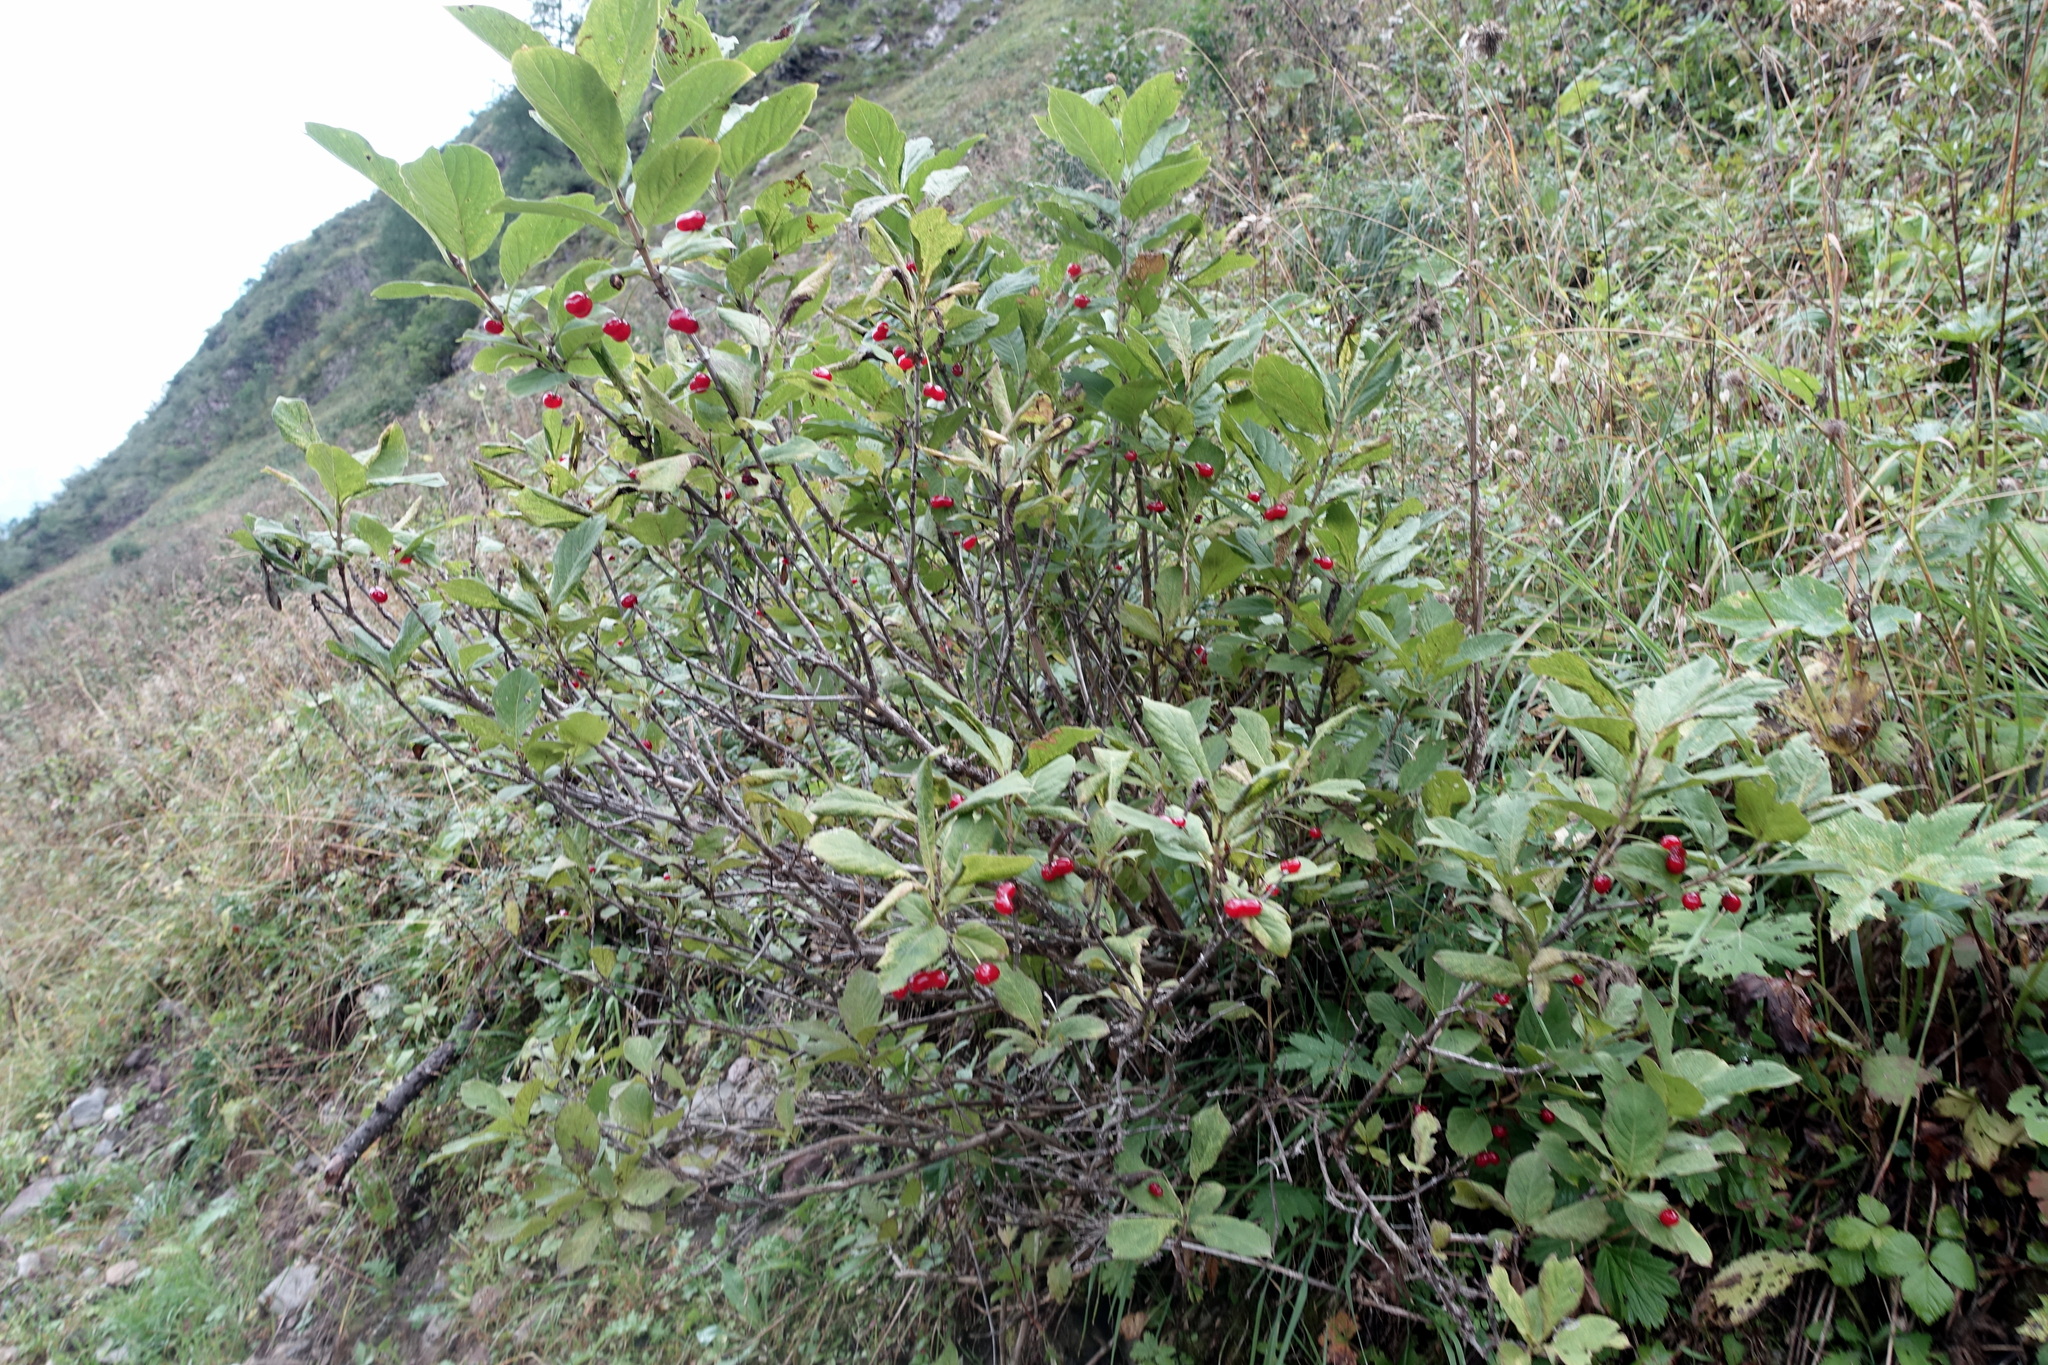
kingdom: Plantae
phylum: Tracheophyta
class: Magnoliopsida
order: Dipsacales
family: Caprifoliaceae
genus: Lonicera
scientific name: Lonicera alpigena
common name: Alpine honeysuckle
